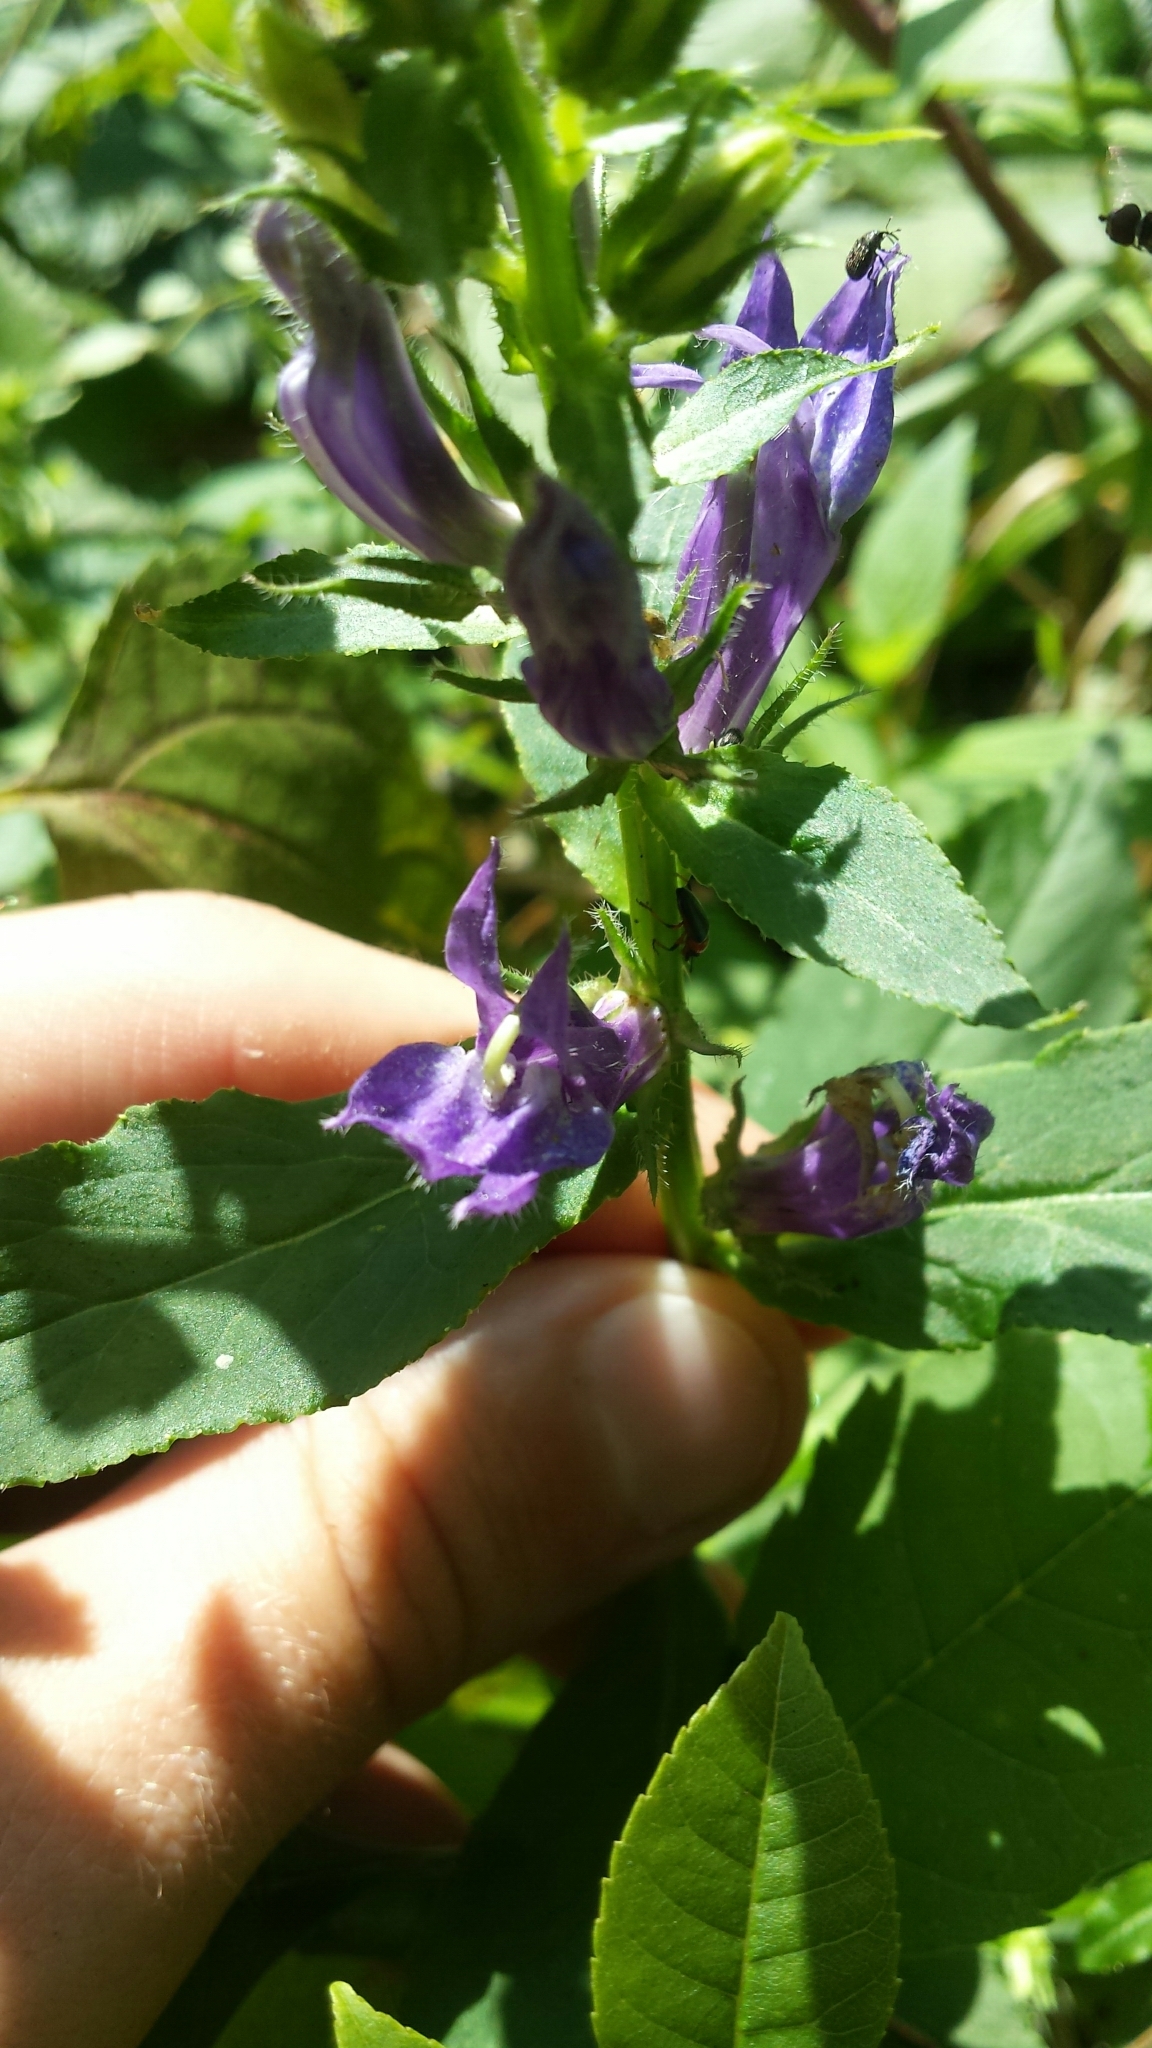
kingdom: Plantae
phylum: Tracheophyta
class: Magnoliopsida
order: Asterales
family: Campanulaceae
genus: Lobelia
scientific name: Lobelia siphilitica
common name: Great lobelia
